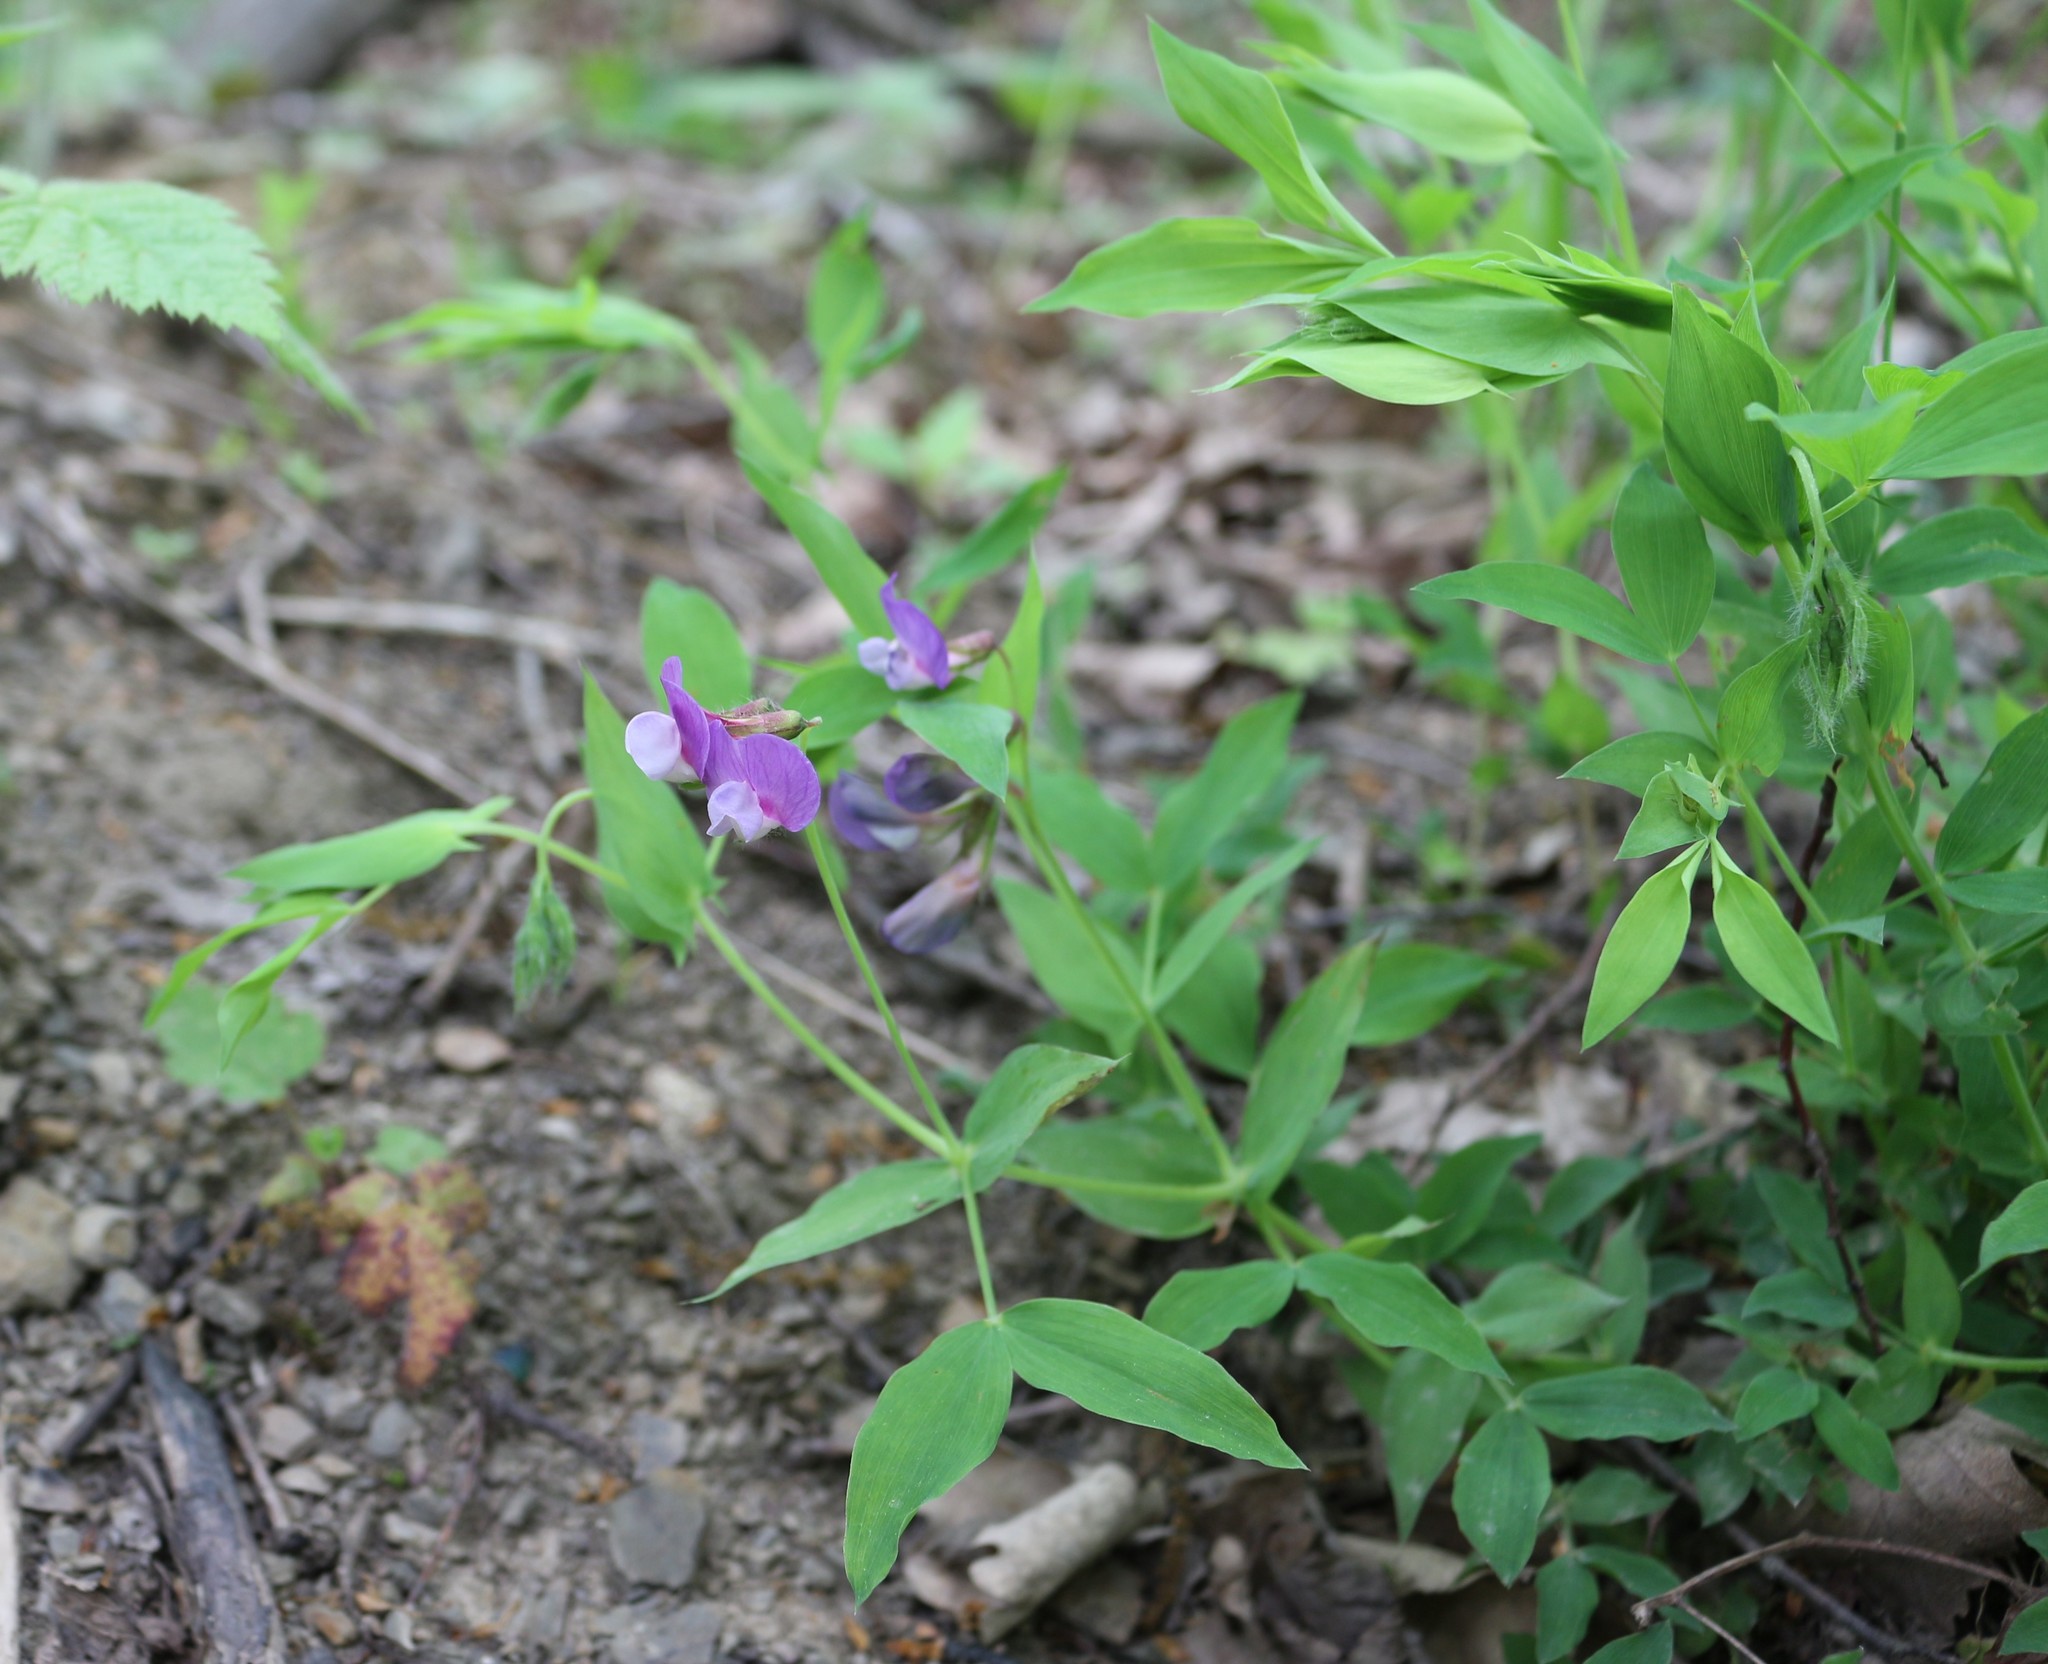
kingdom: Plantae
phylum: Tracheophyta
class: Magnoliopsida
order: Fabales
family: Fabaceae
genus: Lathyrus
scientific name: Lathyrus laxiflorus
